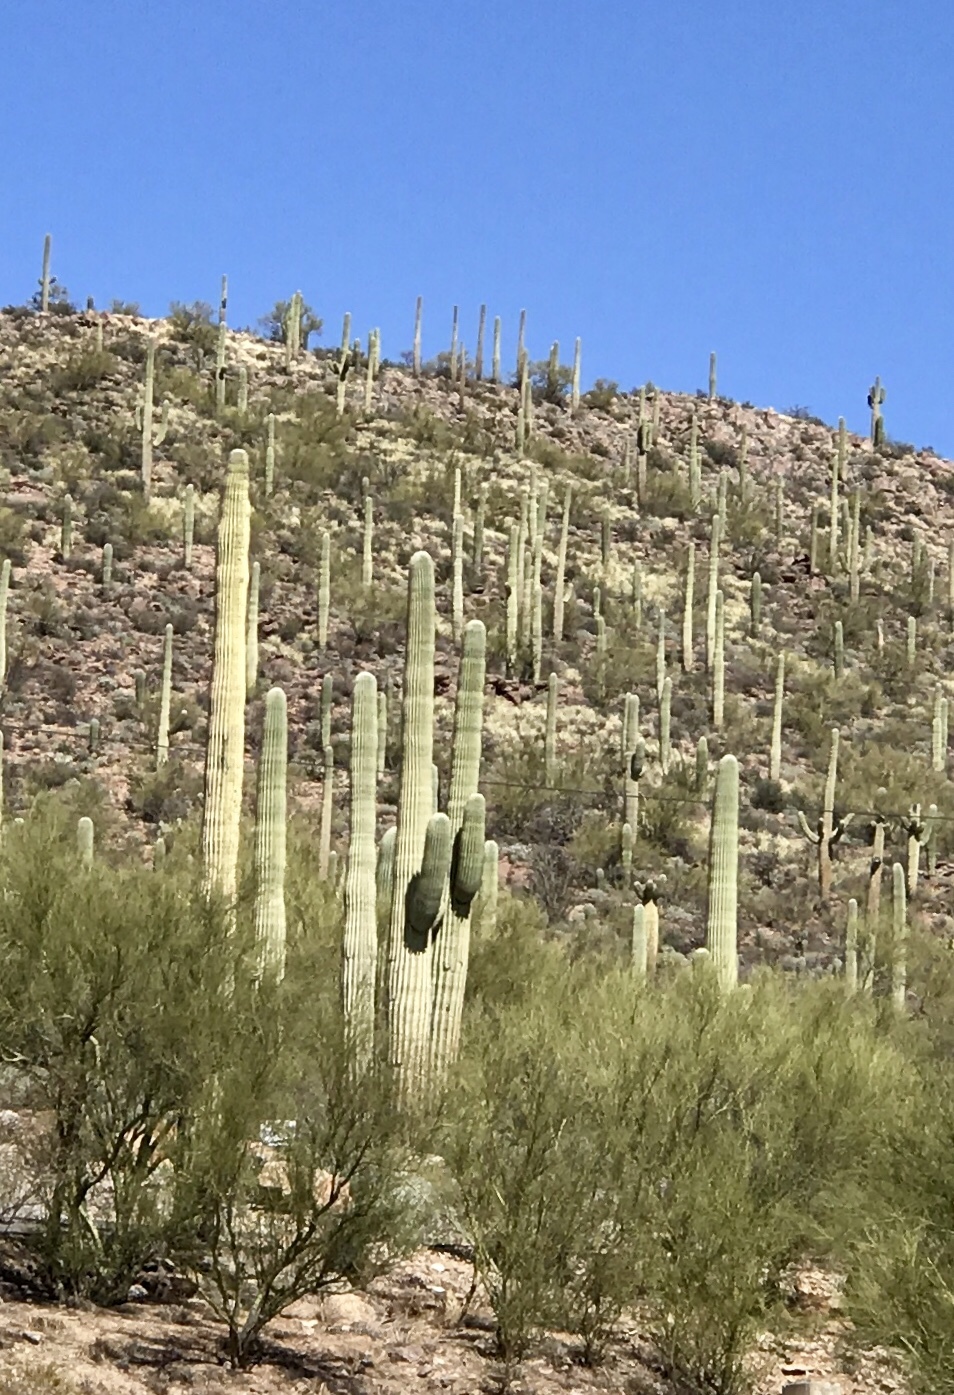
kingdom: Plantae
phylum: Tracheophyta
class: Magnoliopsida
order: Caryophyllales
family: Cactaceae
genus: Carnegiea
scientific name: Carnegiea gigantea
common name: Saguaro
